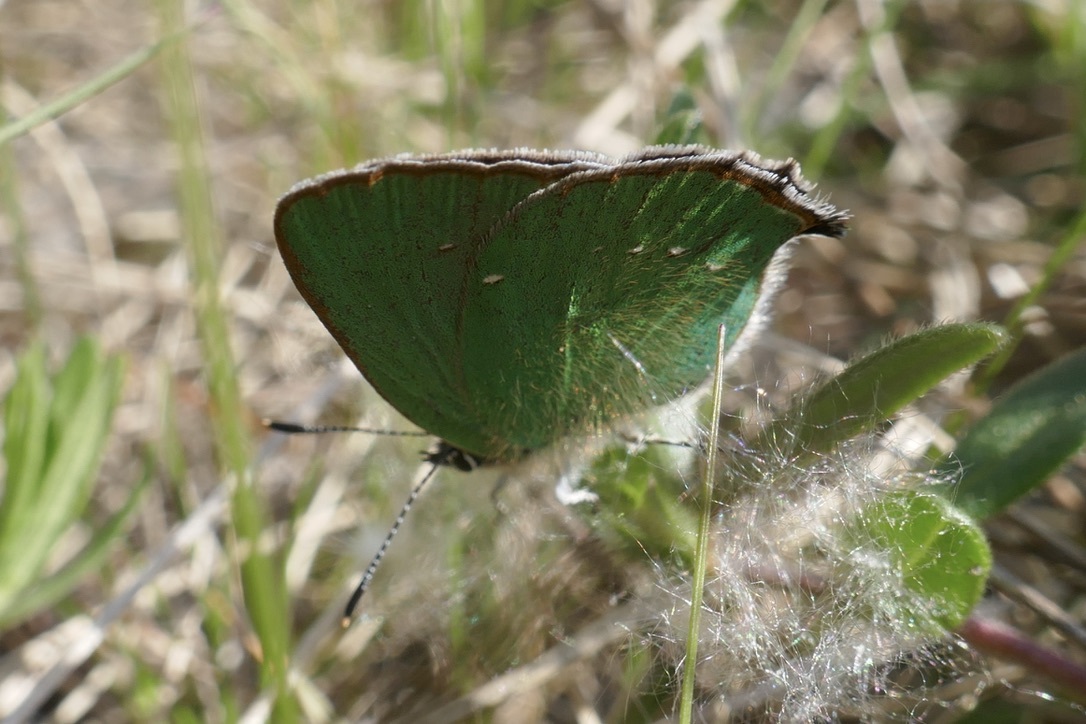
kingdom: Animalia
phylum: Arthropoda
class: Insecta
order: Lepidoptera
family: Lycaenidae
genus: Callophrys
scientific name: Callophrys rubi
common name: Green hairstreak
